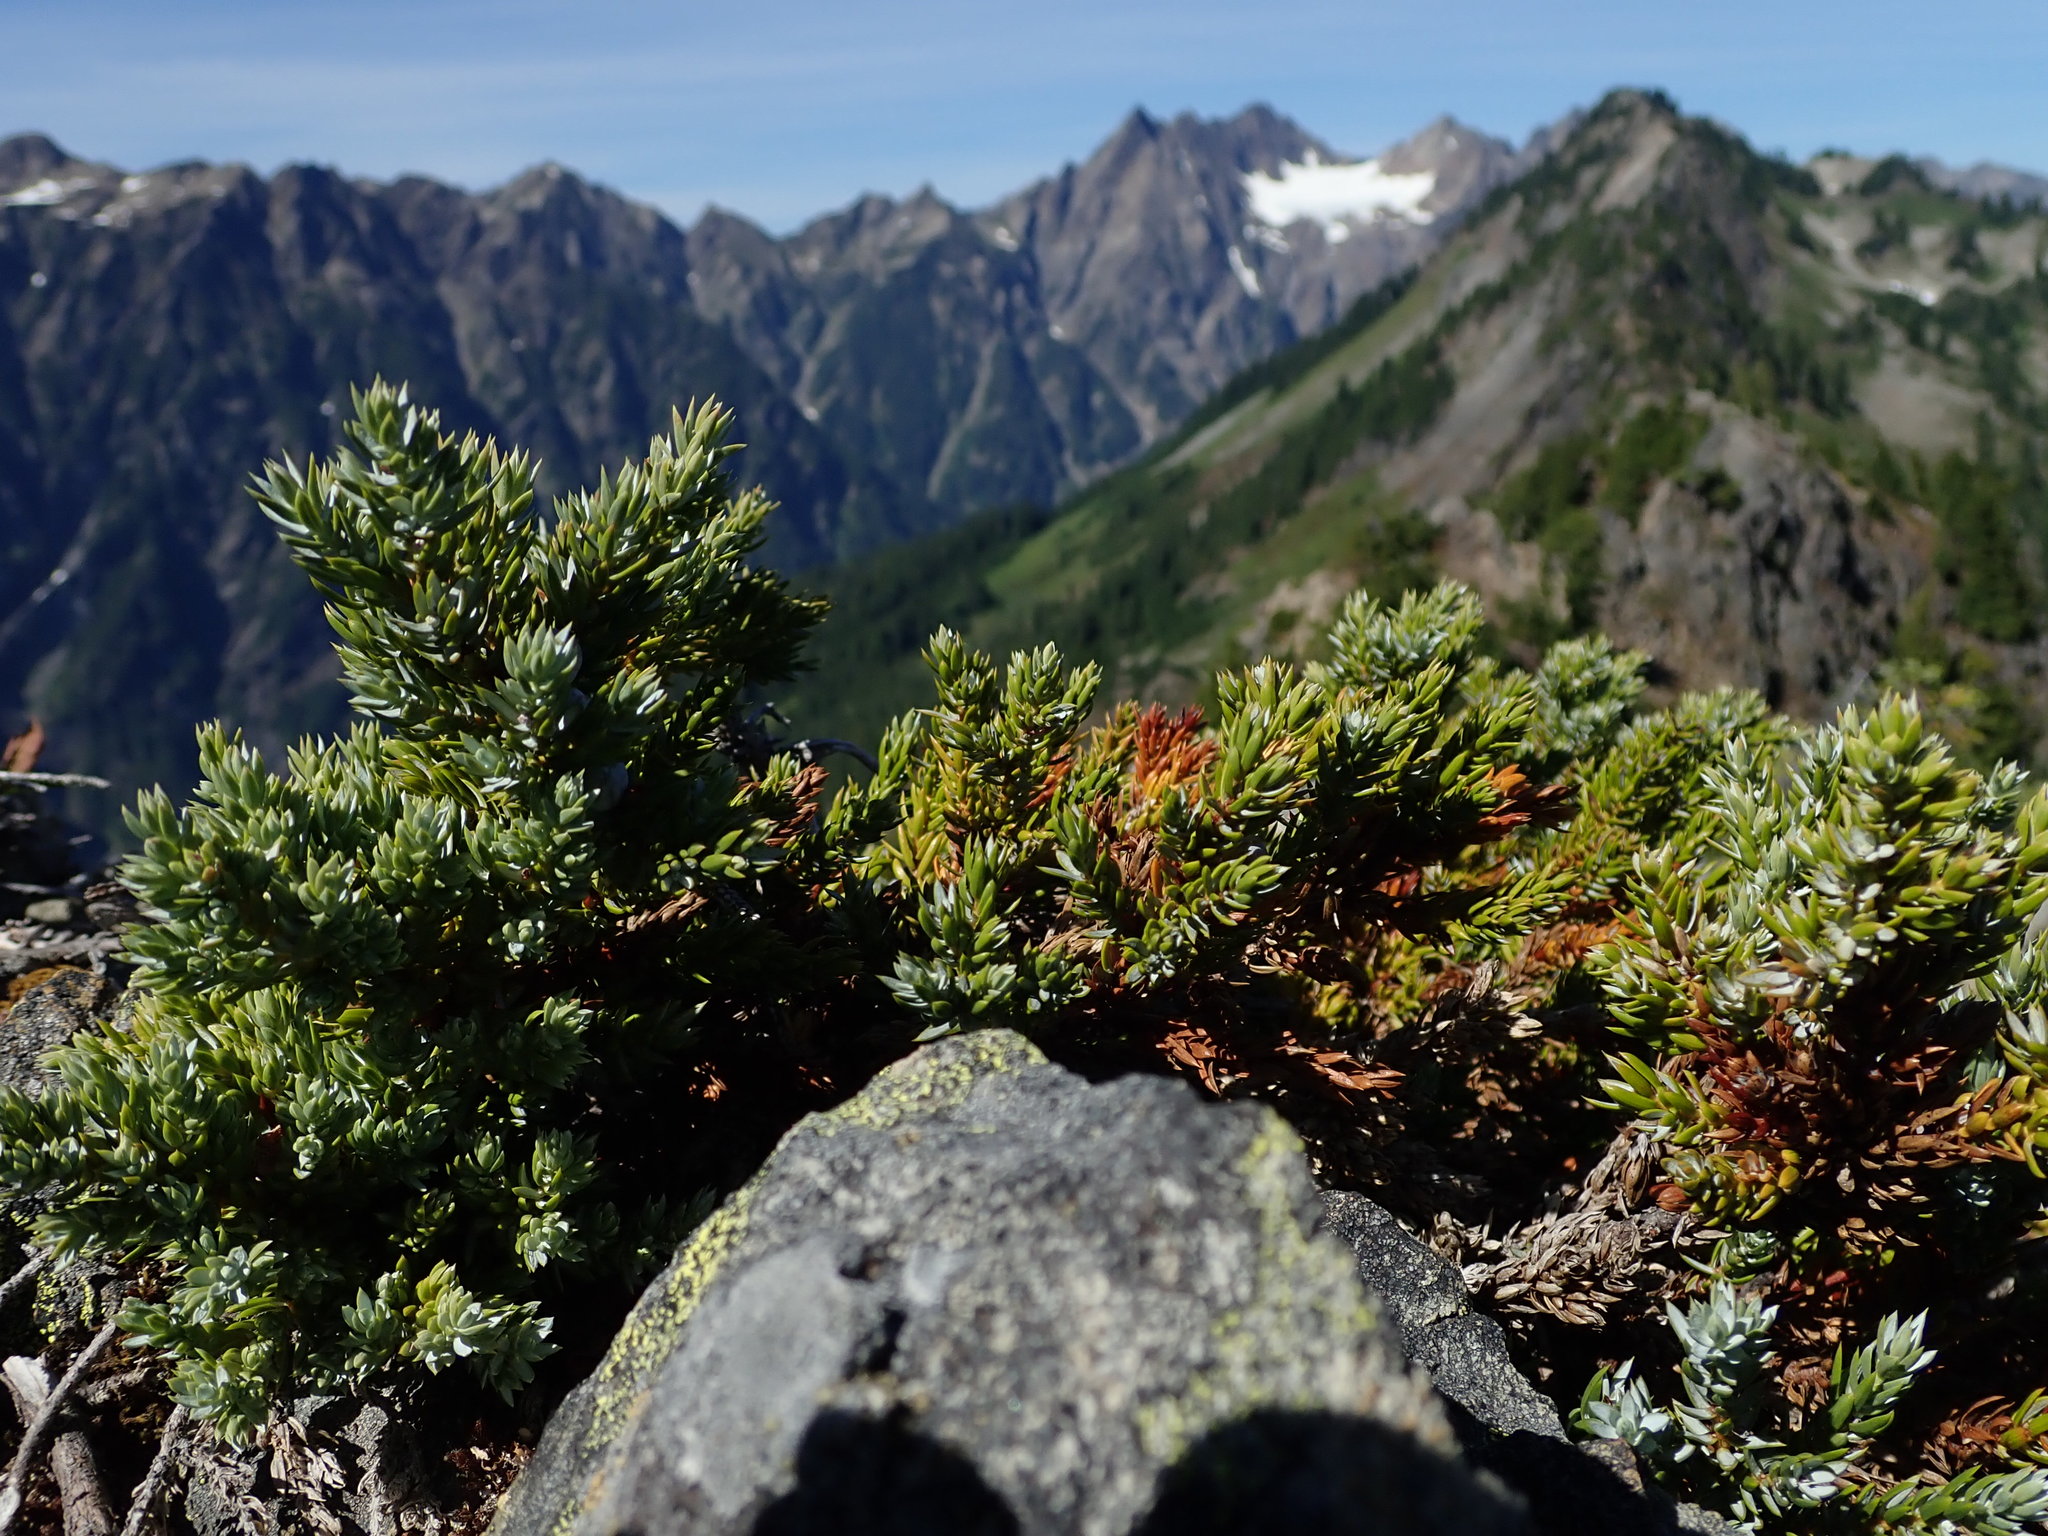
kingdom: Plantae
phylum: Tracheophyta
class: Pinopsida
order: Pinales
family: Cupressaceae
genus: Juniperus
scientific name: Juniperus communis
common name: Common juniper
